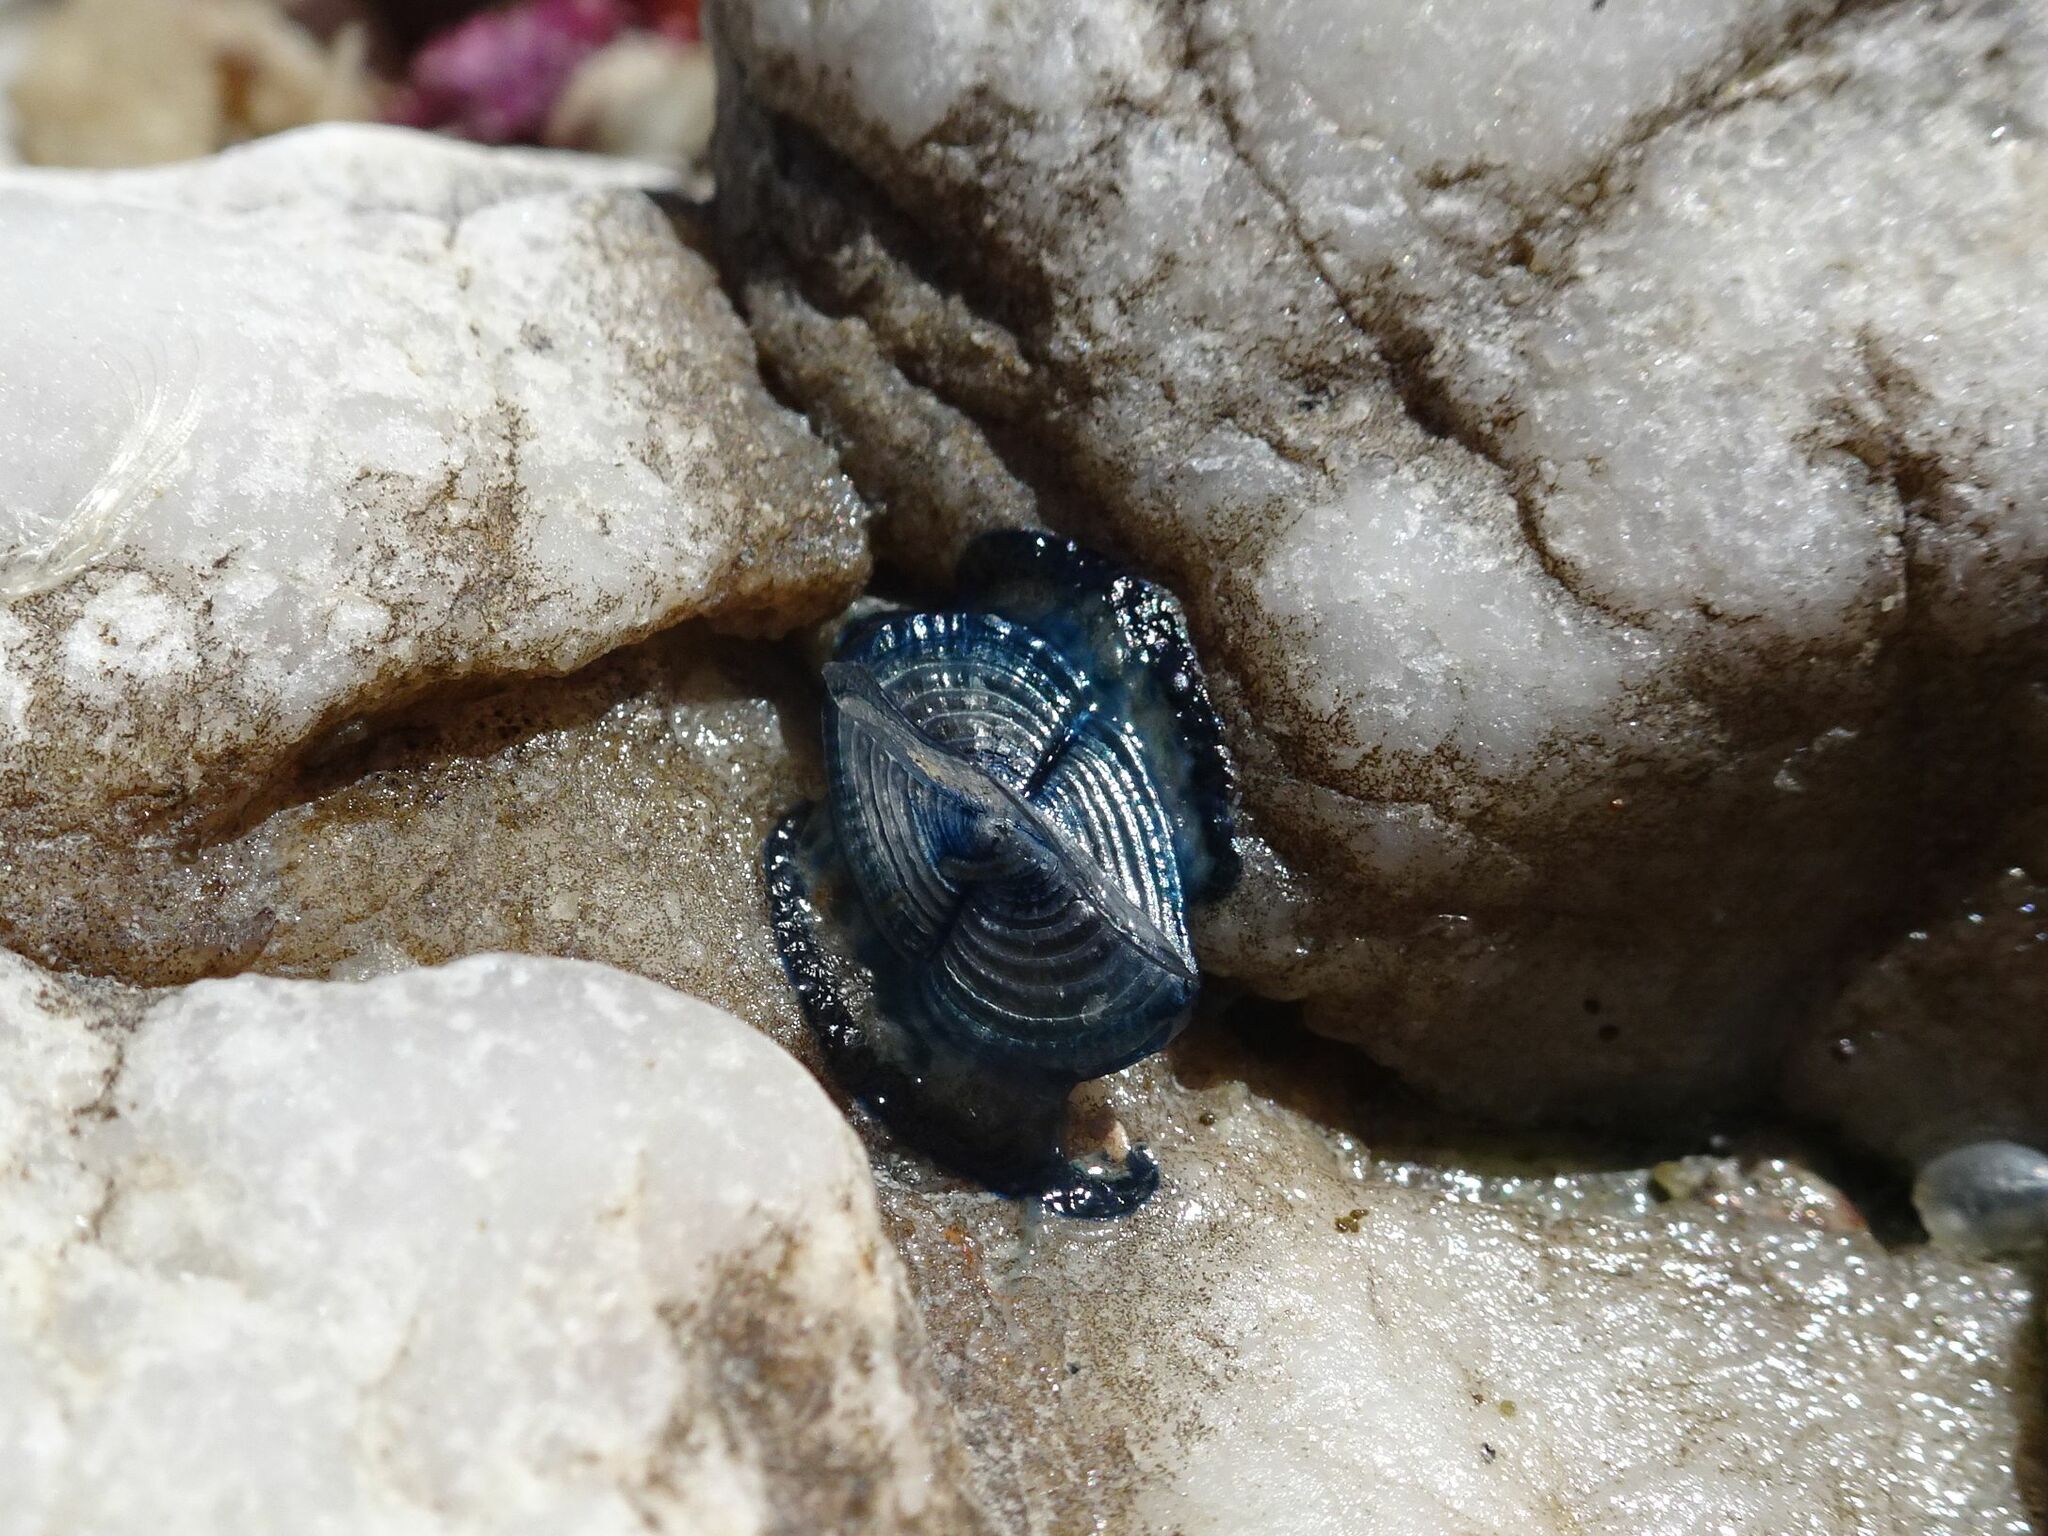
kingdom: Animalia
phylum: Cnidaria
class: Hydrozoa
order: Anthoathecata
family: Porpitidae
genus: Velella
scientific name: Velella velella
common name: By-the-wind-sailor
